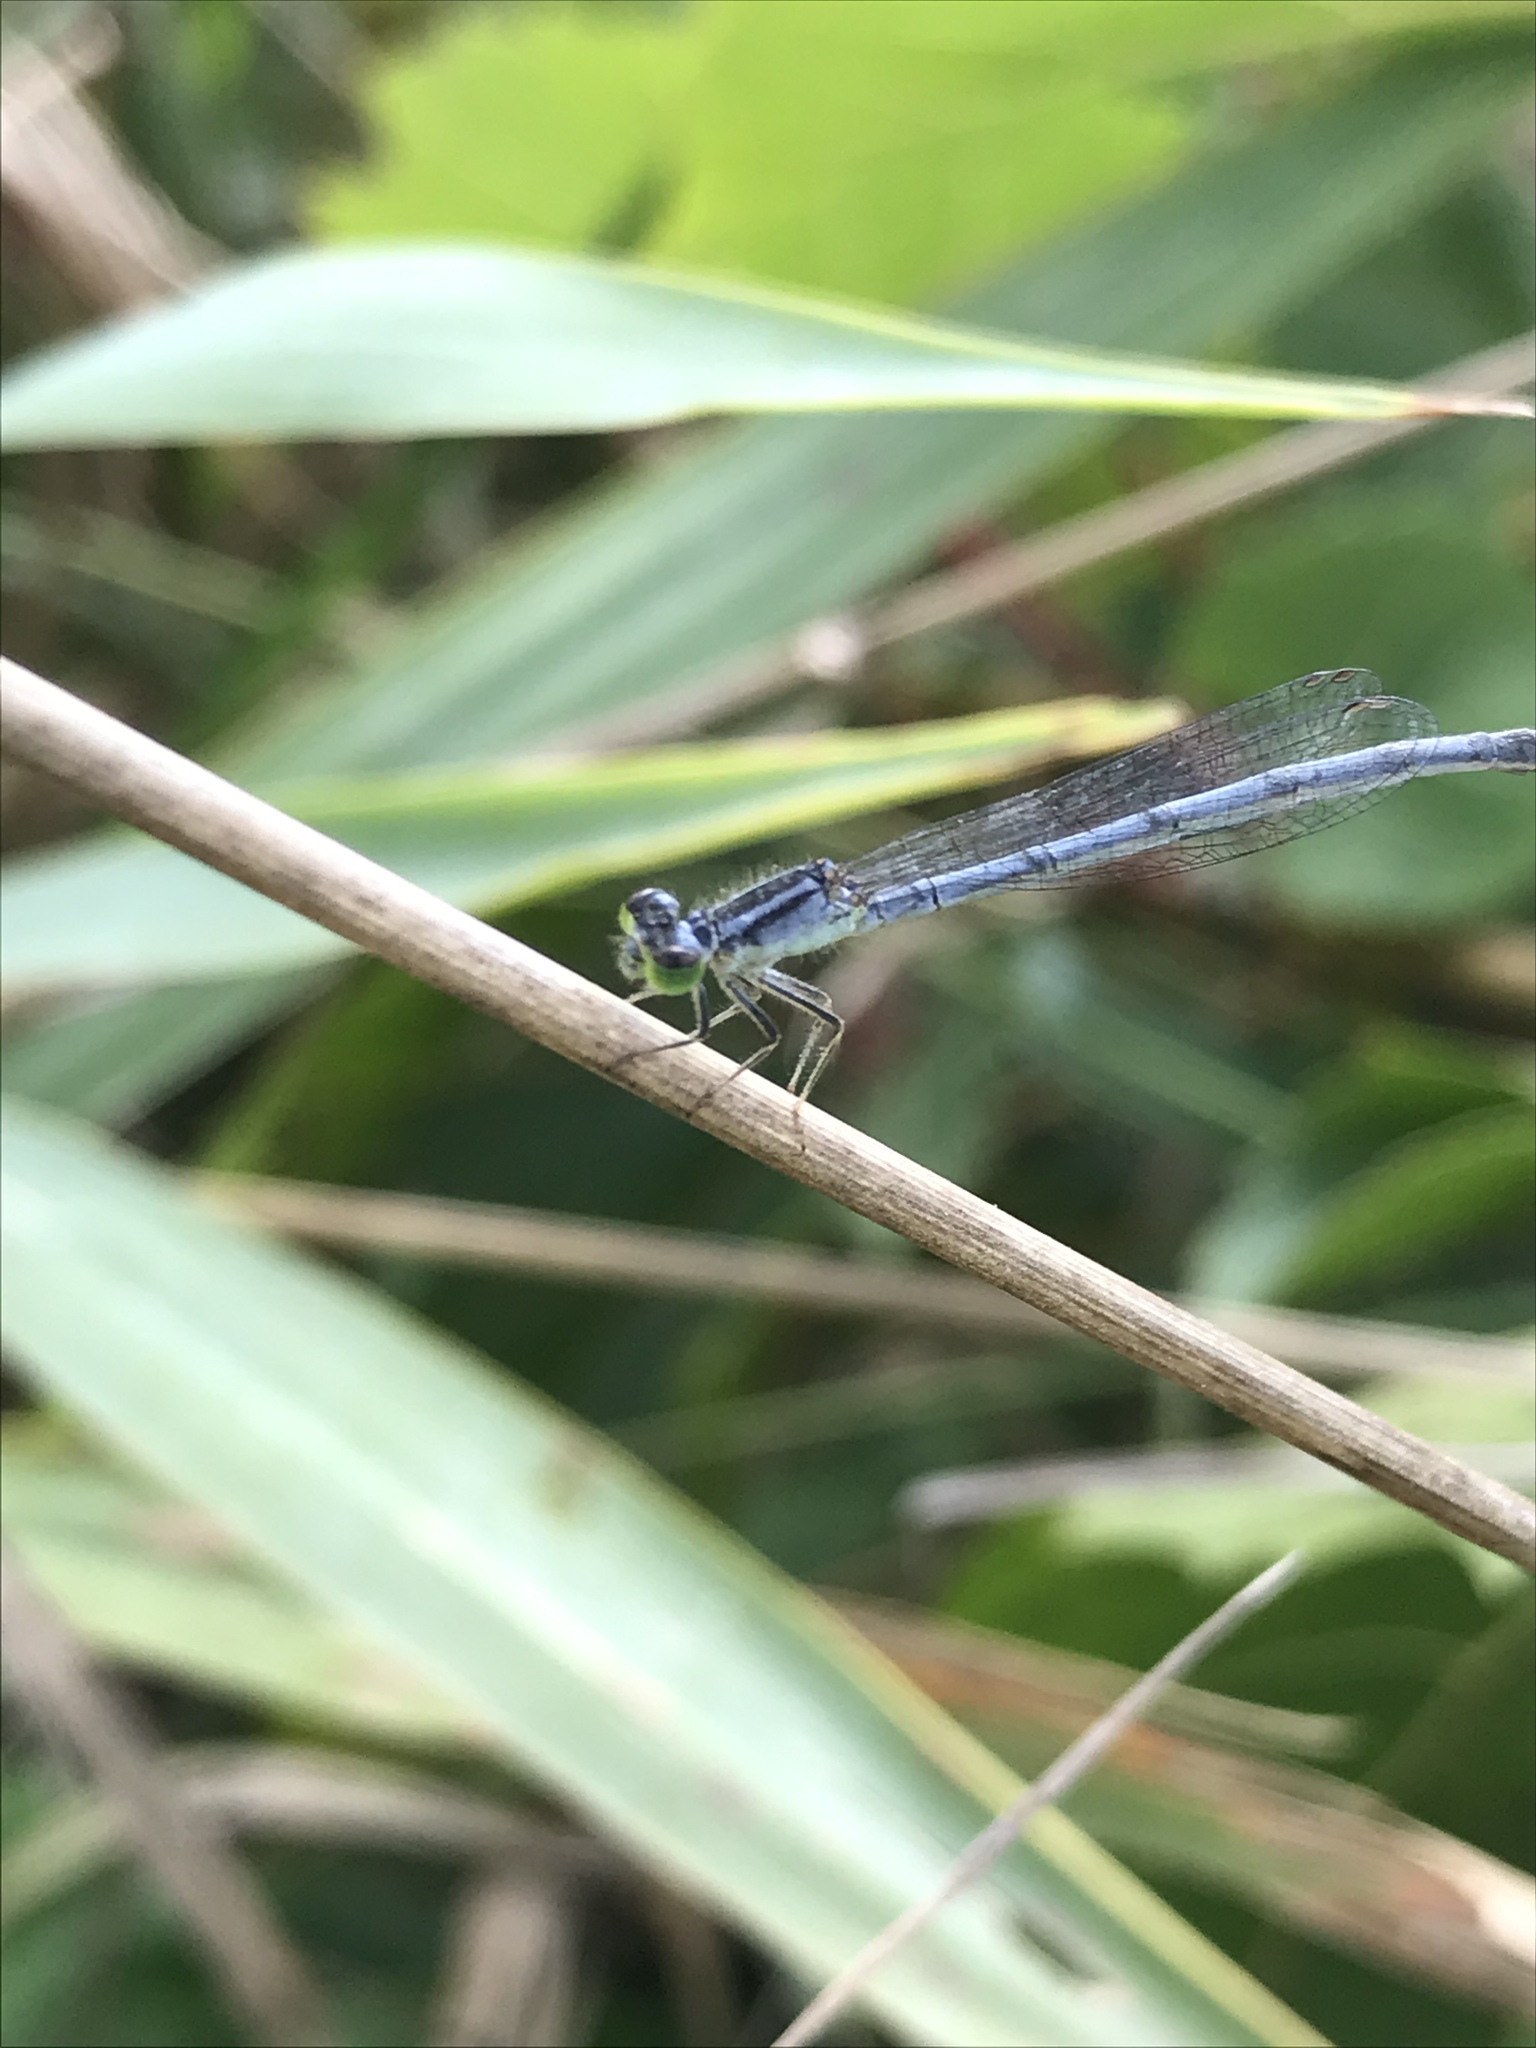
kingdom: Animalia
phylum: Arthropoda
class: Insecta
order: Odonata
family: Coenagrionidae
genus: Ischnura
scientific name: Ischnura verticalis
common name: Eastern forktail
